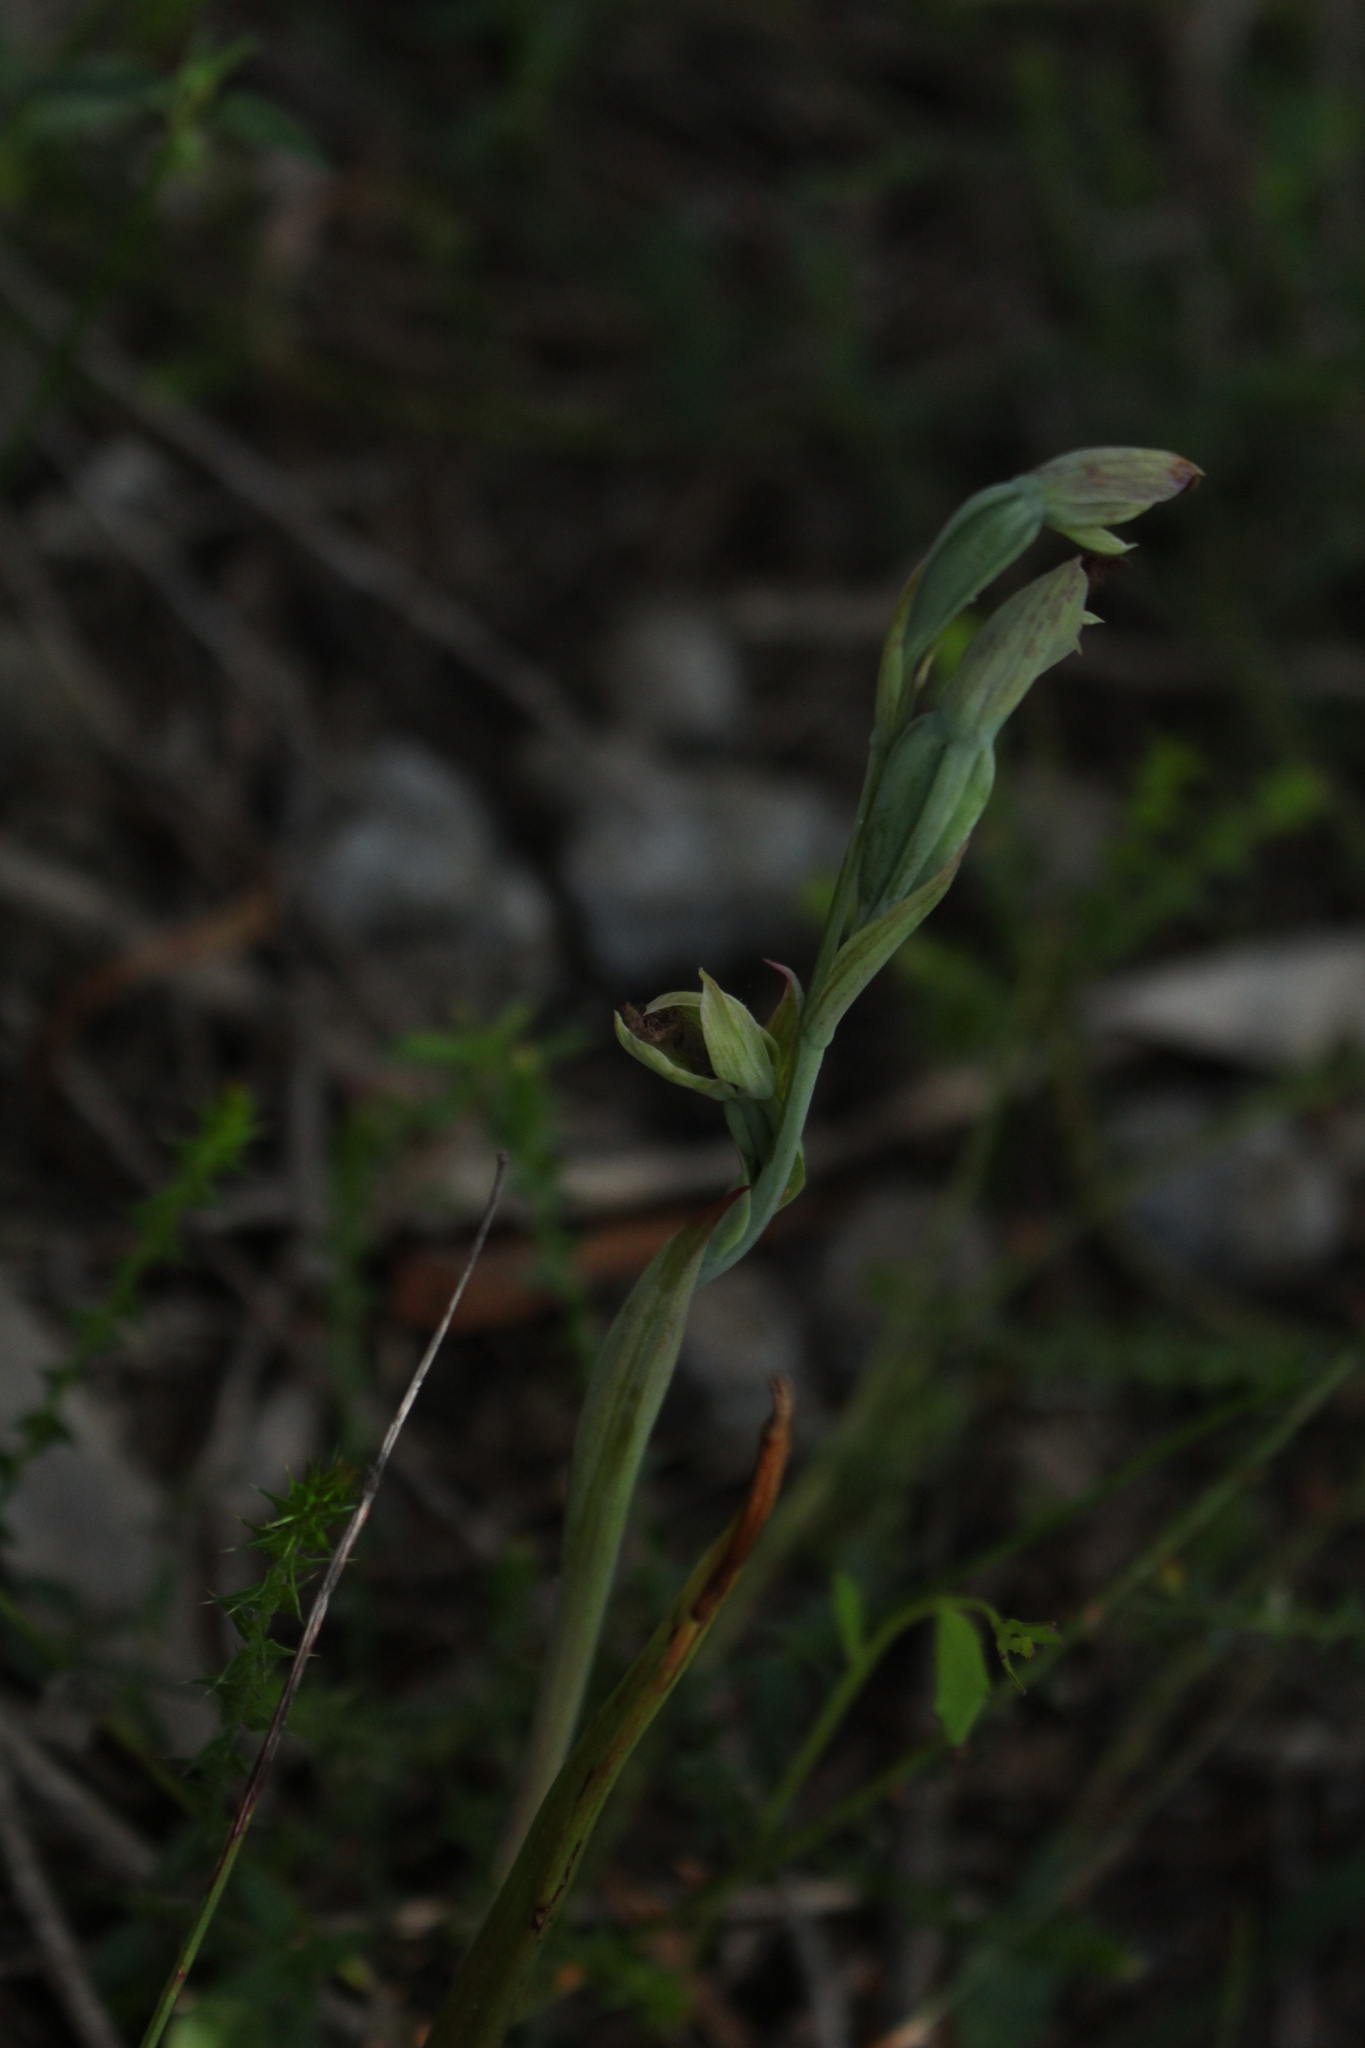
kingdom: Plantae
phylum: Tracheophyta
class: Liliopsida
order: Asparagales
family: Orchidaceae
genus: Calochilus
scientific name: Calochilus uliginosus
